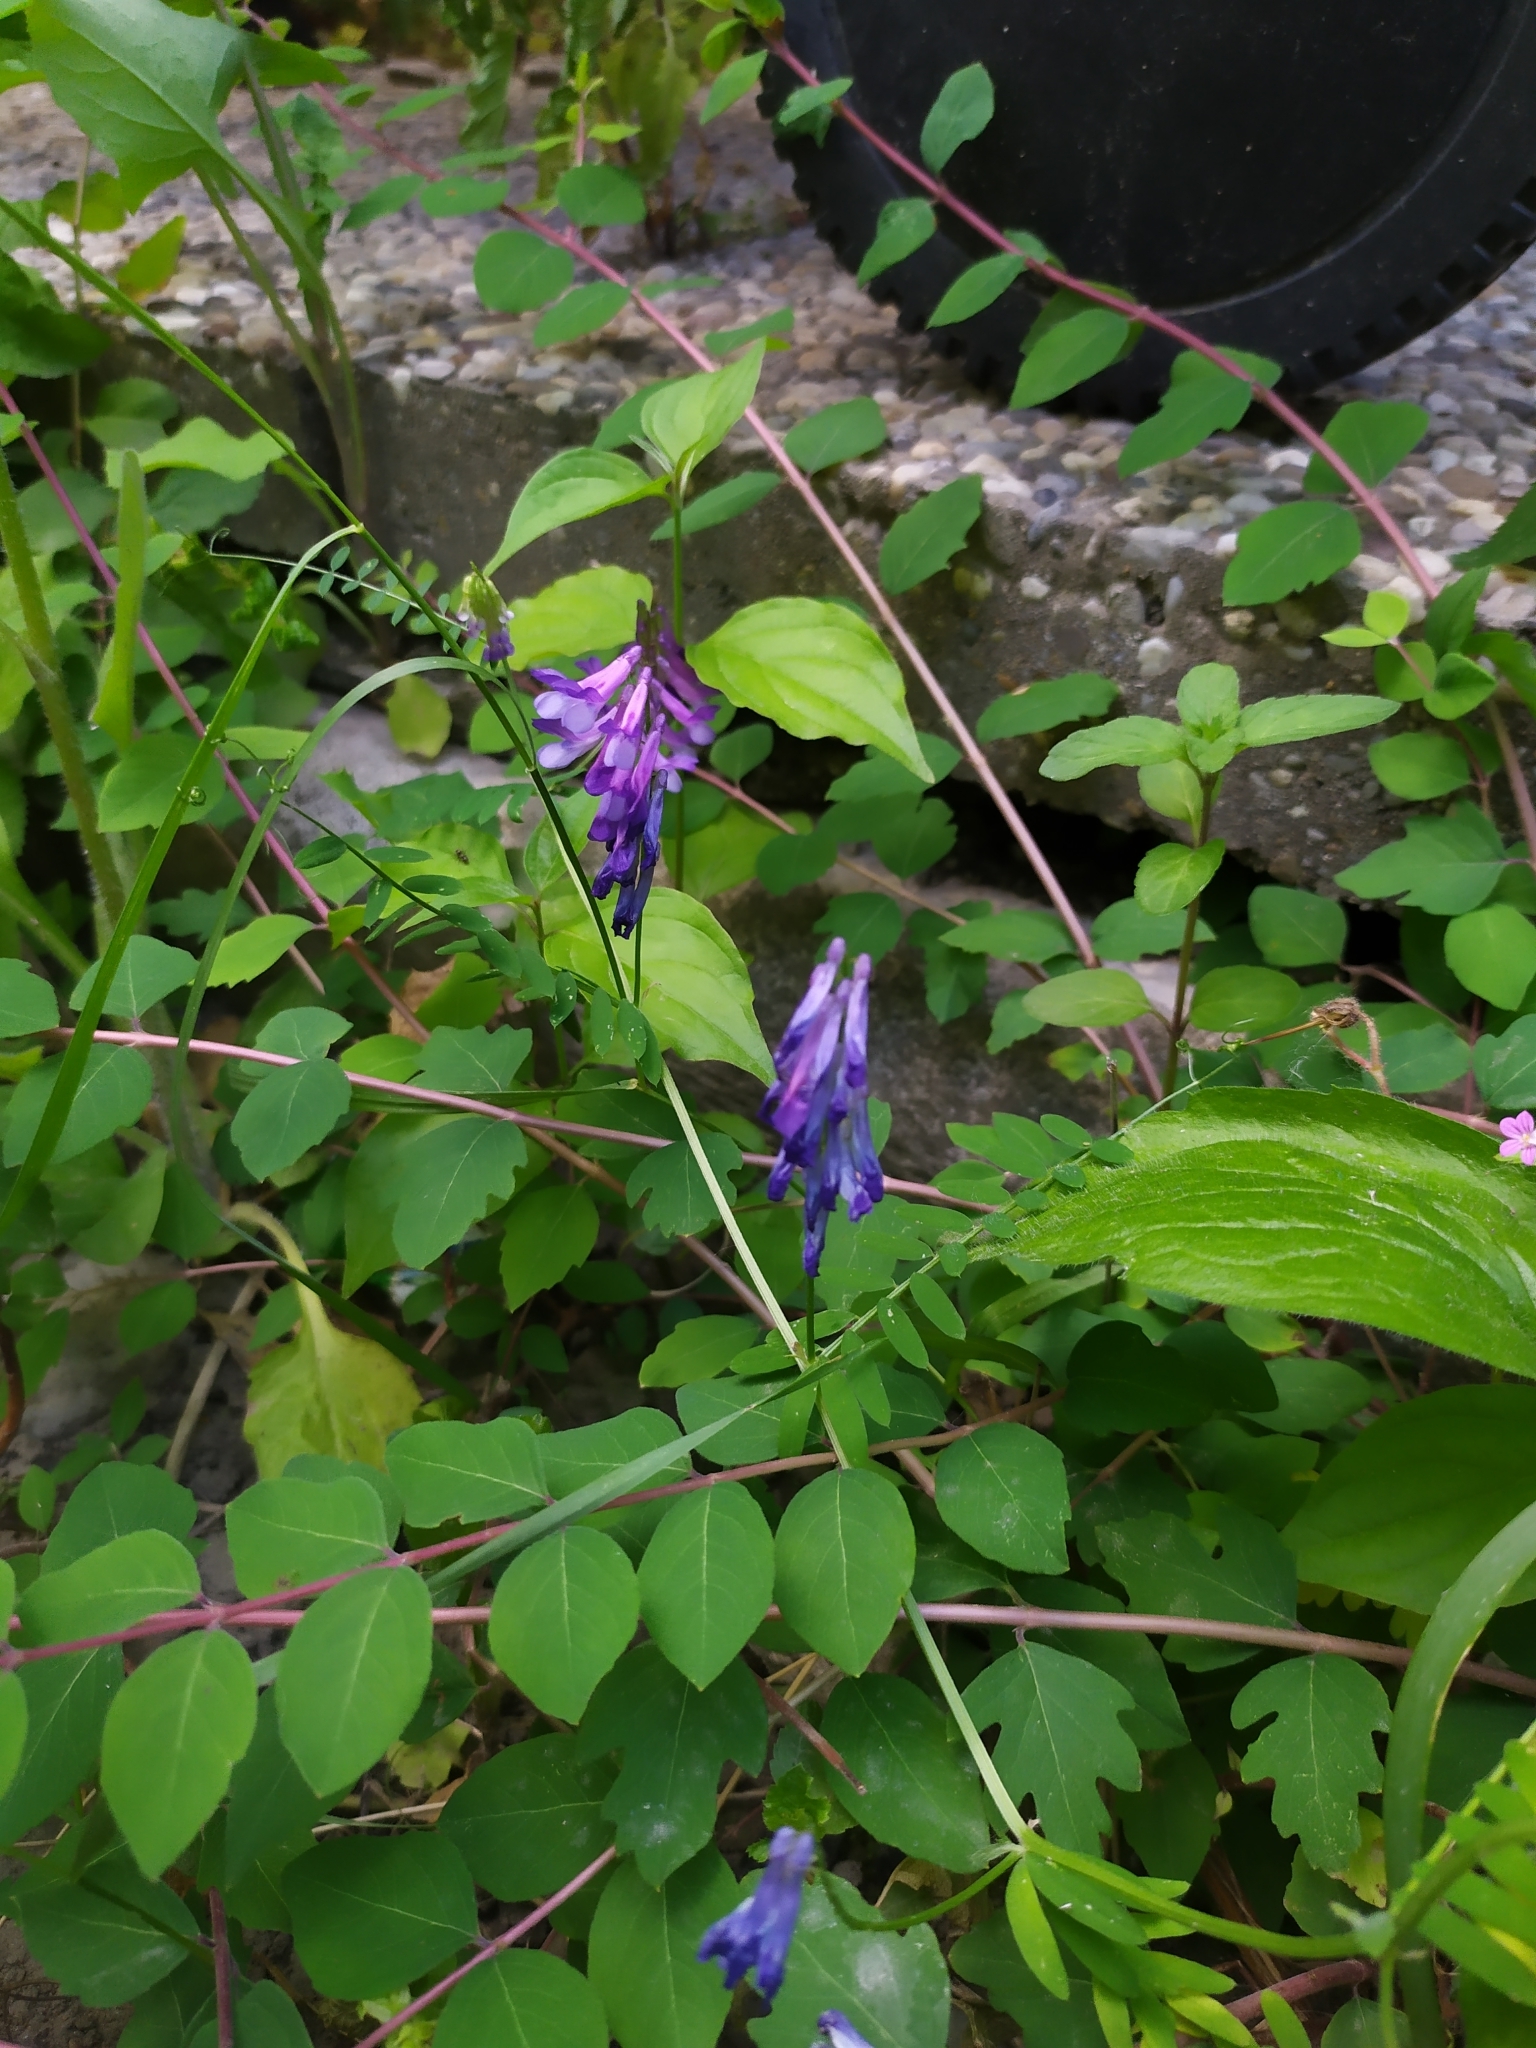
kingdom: Plantae
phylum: Tracheophyta
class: Magnoliopsida
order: Fabales
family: Fabaceae
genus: Vicia
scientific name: Vicia villosa
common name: Fodder vetch
